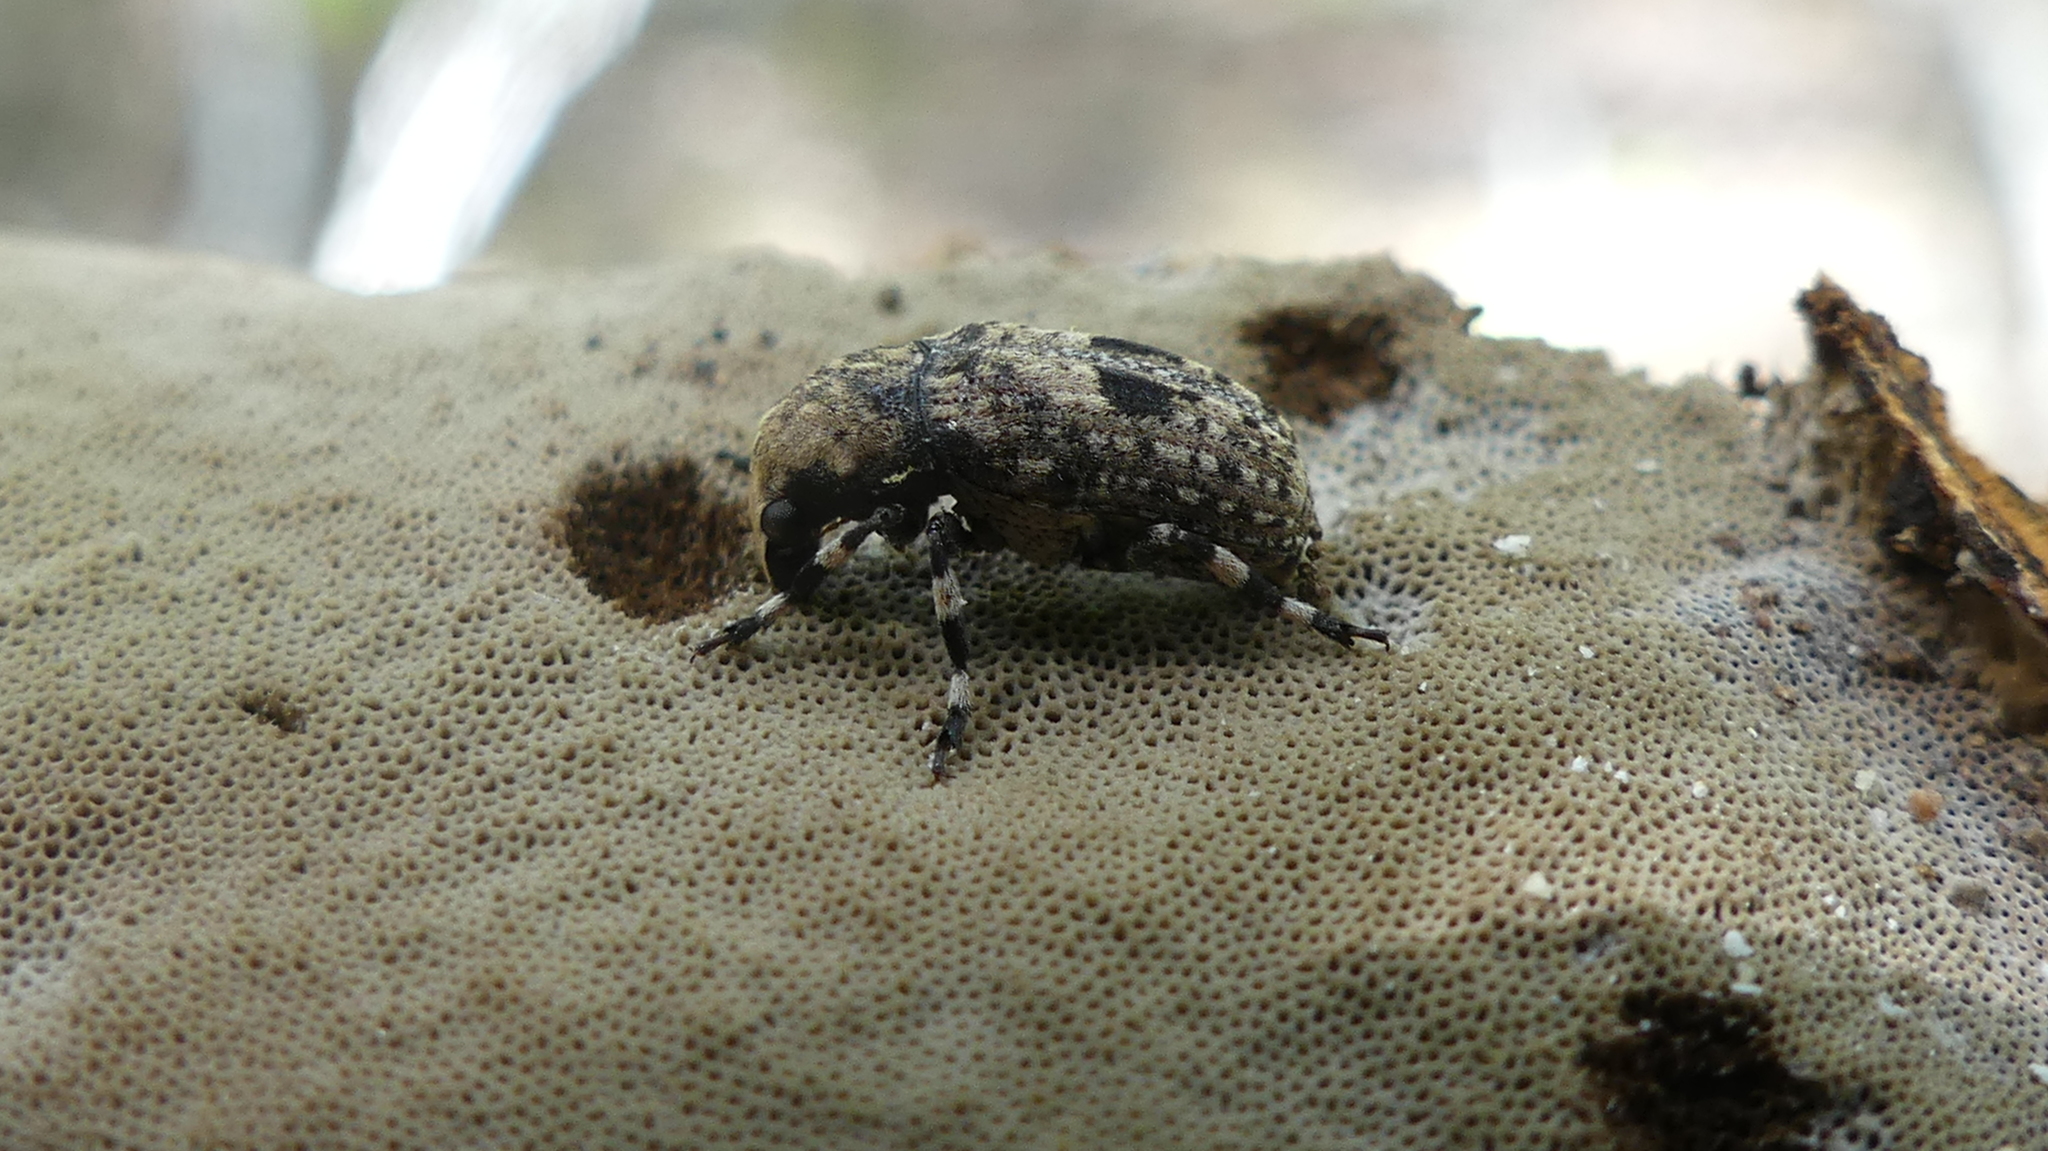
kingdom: Animalia
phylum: Arthropoda
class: Insecta
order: Coleoptera
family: Anthribidae
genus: Euparius
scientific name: Euparius marmoreus
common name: Marbled fungus weevil
